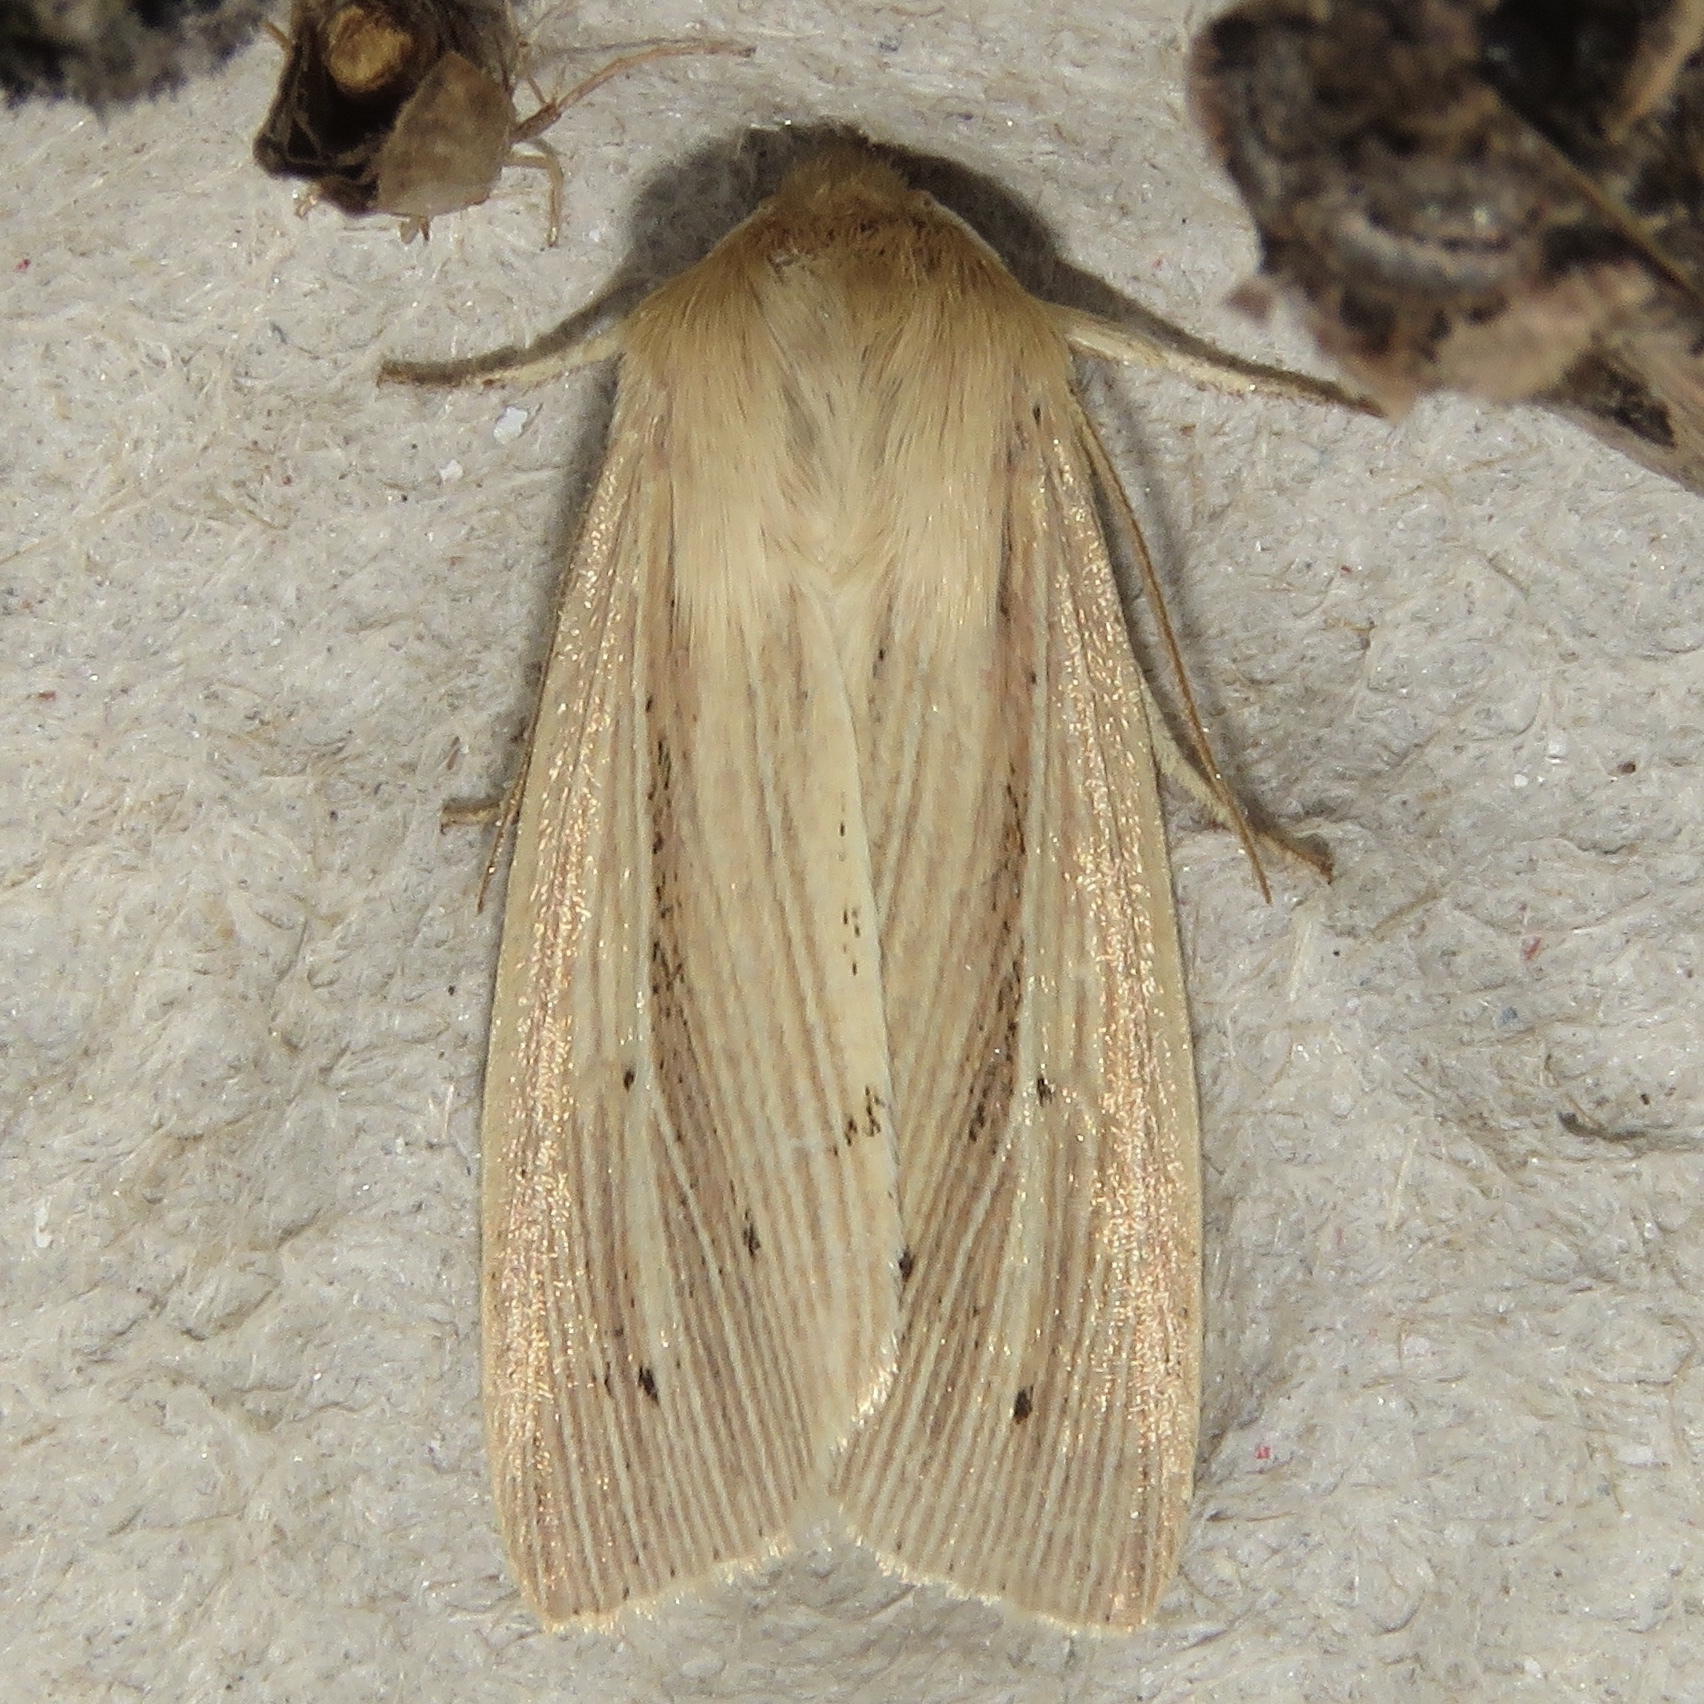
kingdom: Animalia
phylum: Arthropoda
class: Insecta
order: Lepidoptera
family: Noctuidae
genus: Mythimna
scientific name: Mythimna oxygala
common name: Lesser wainscot
